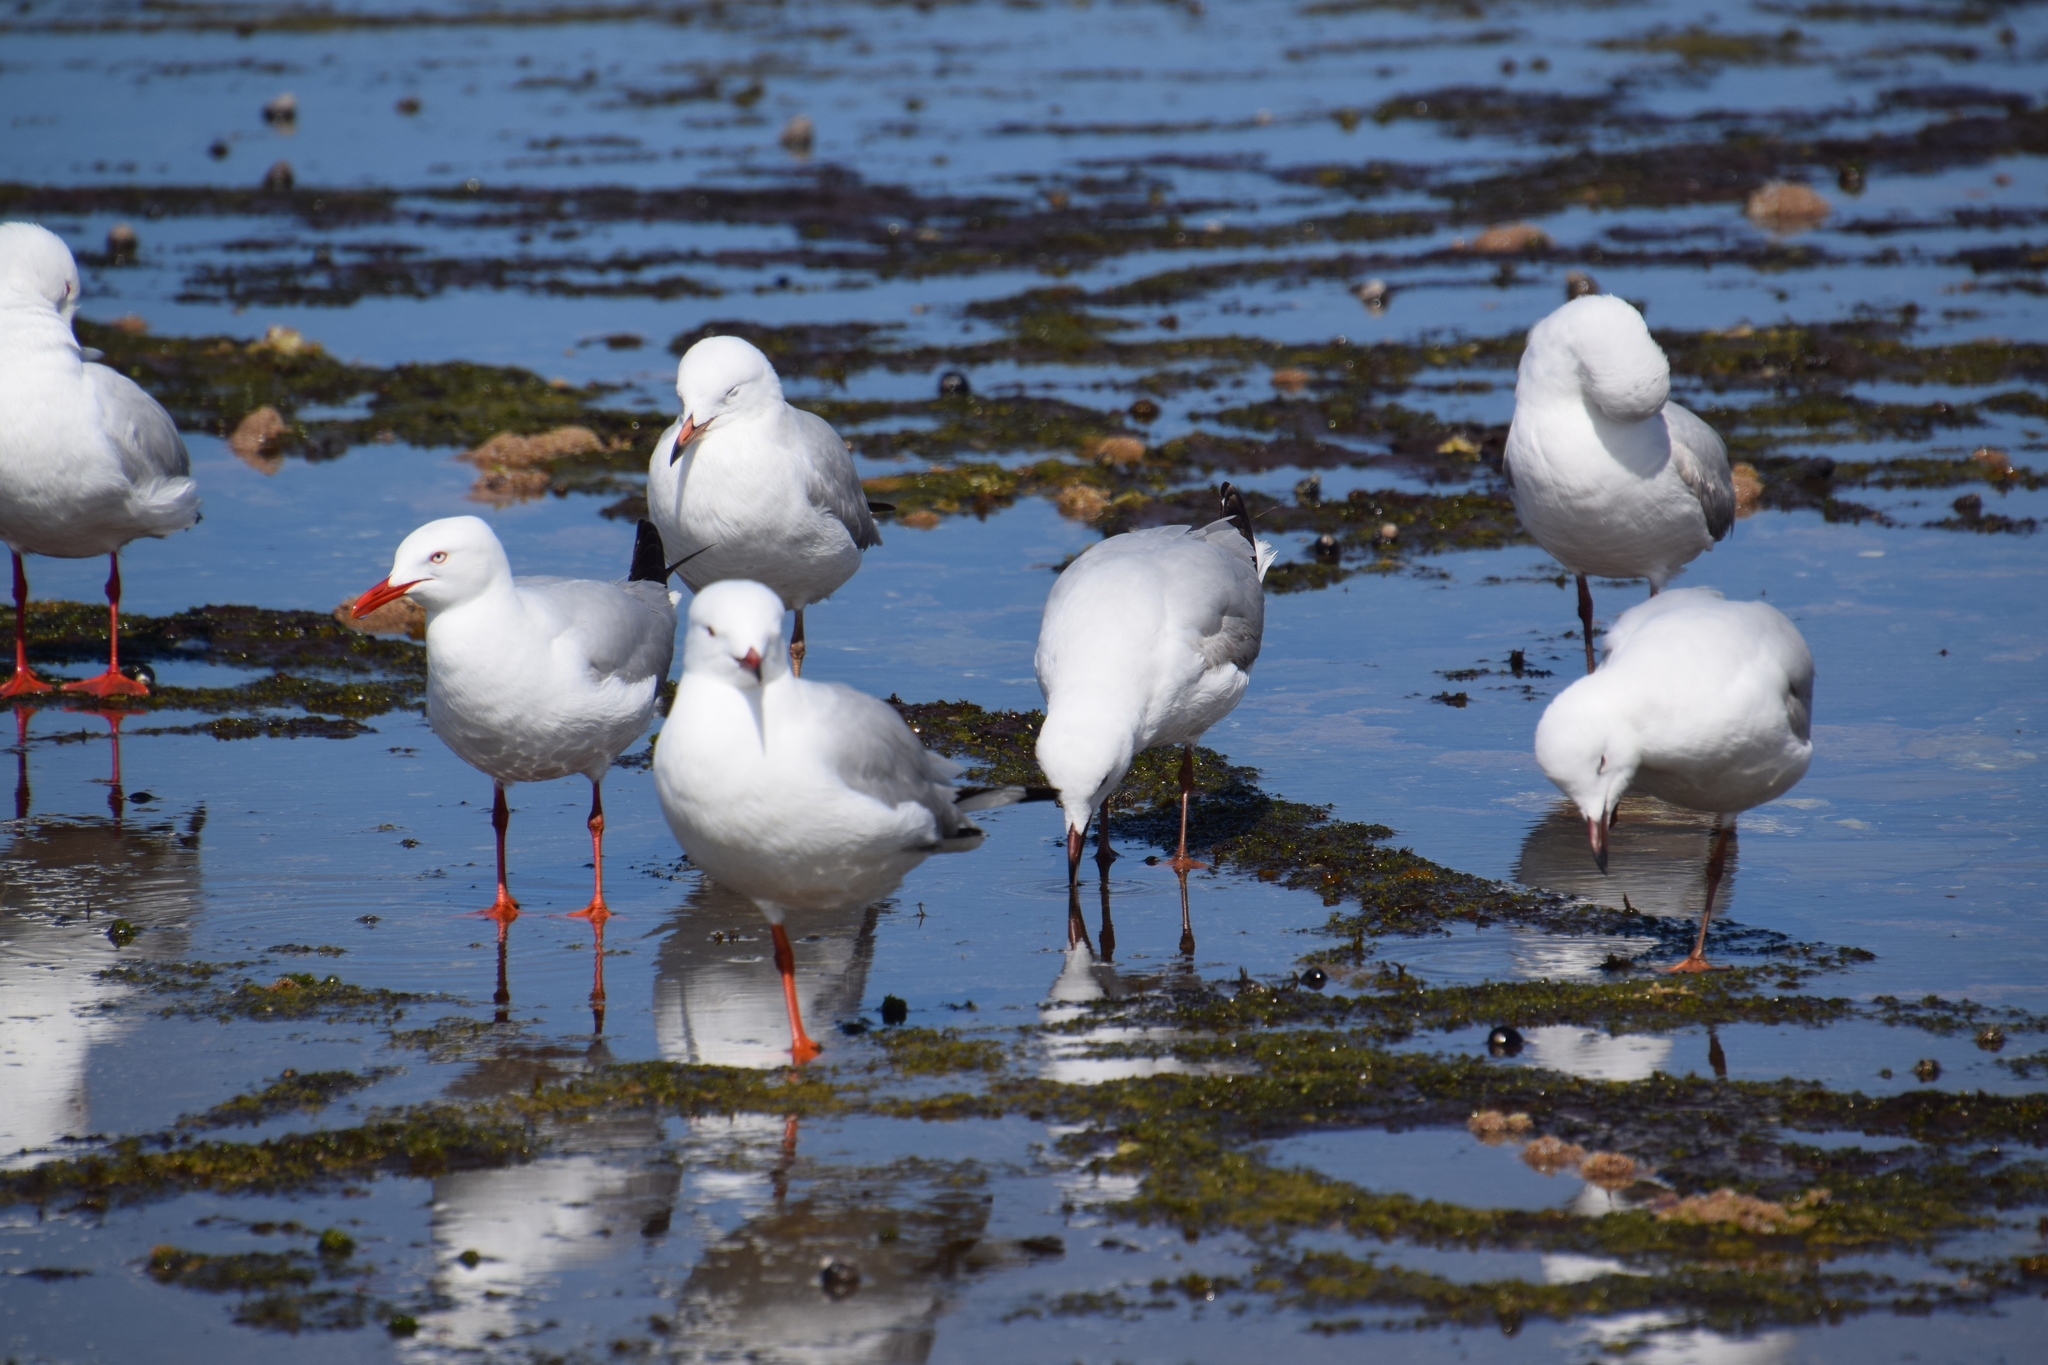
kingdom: Animalia
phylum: Chordata
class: Aves
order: Charadriiformes
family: Laridae
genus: Chroicocephalus
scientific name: Chroicocephalus novaehollandiae
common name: Silver gull
